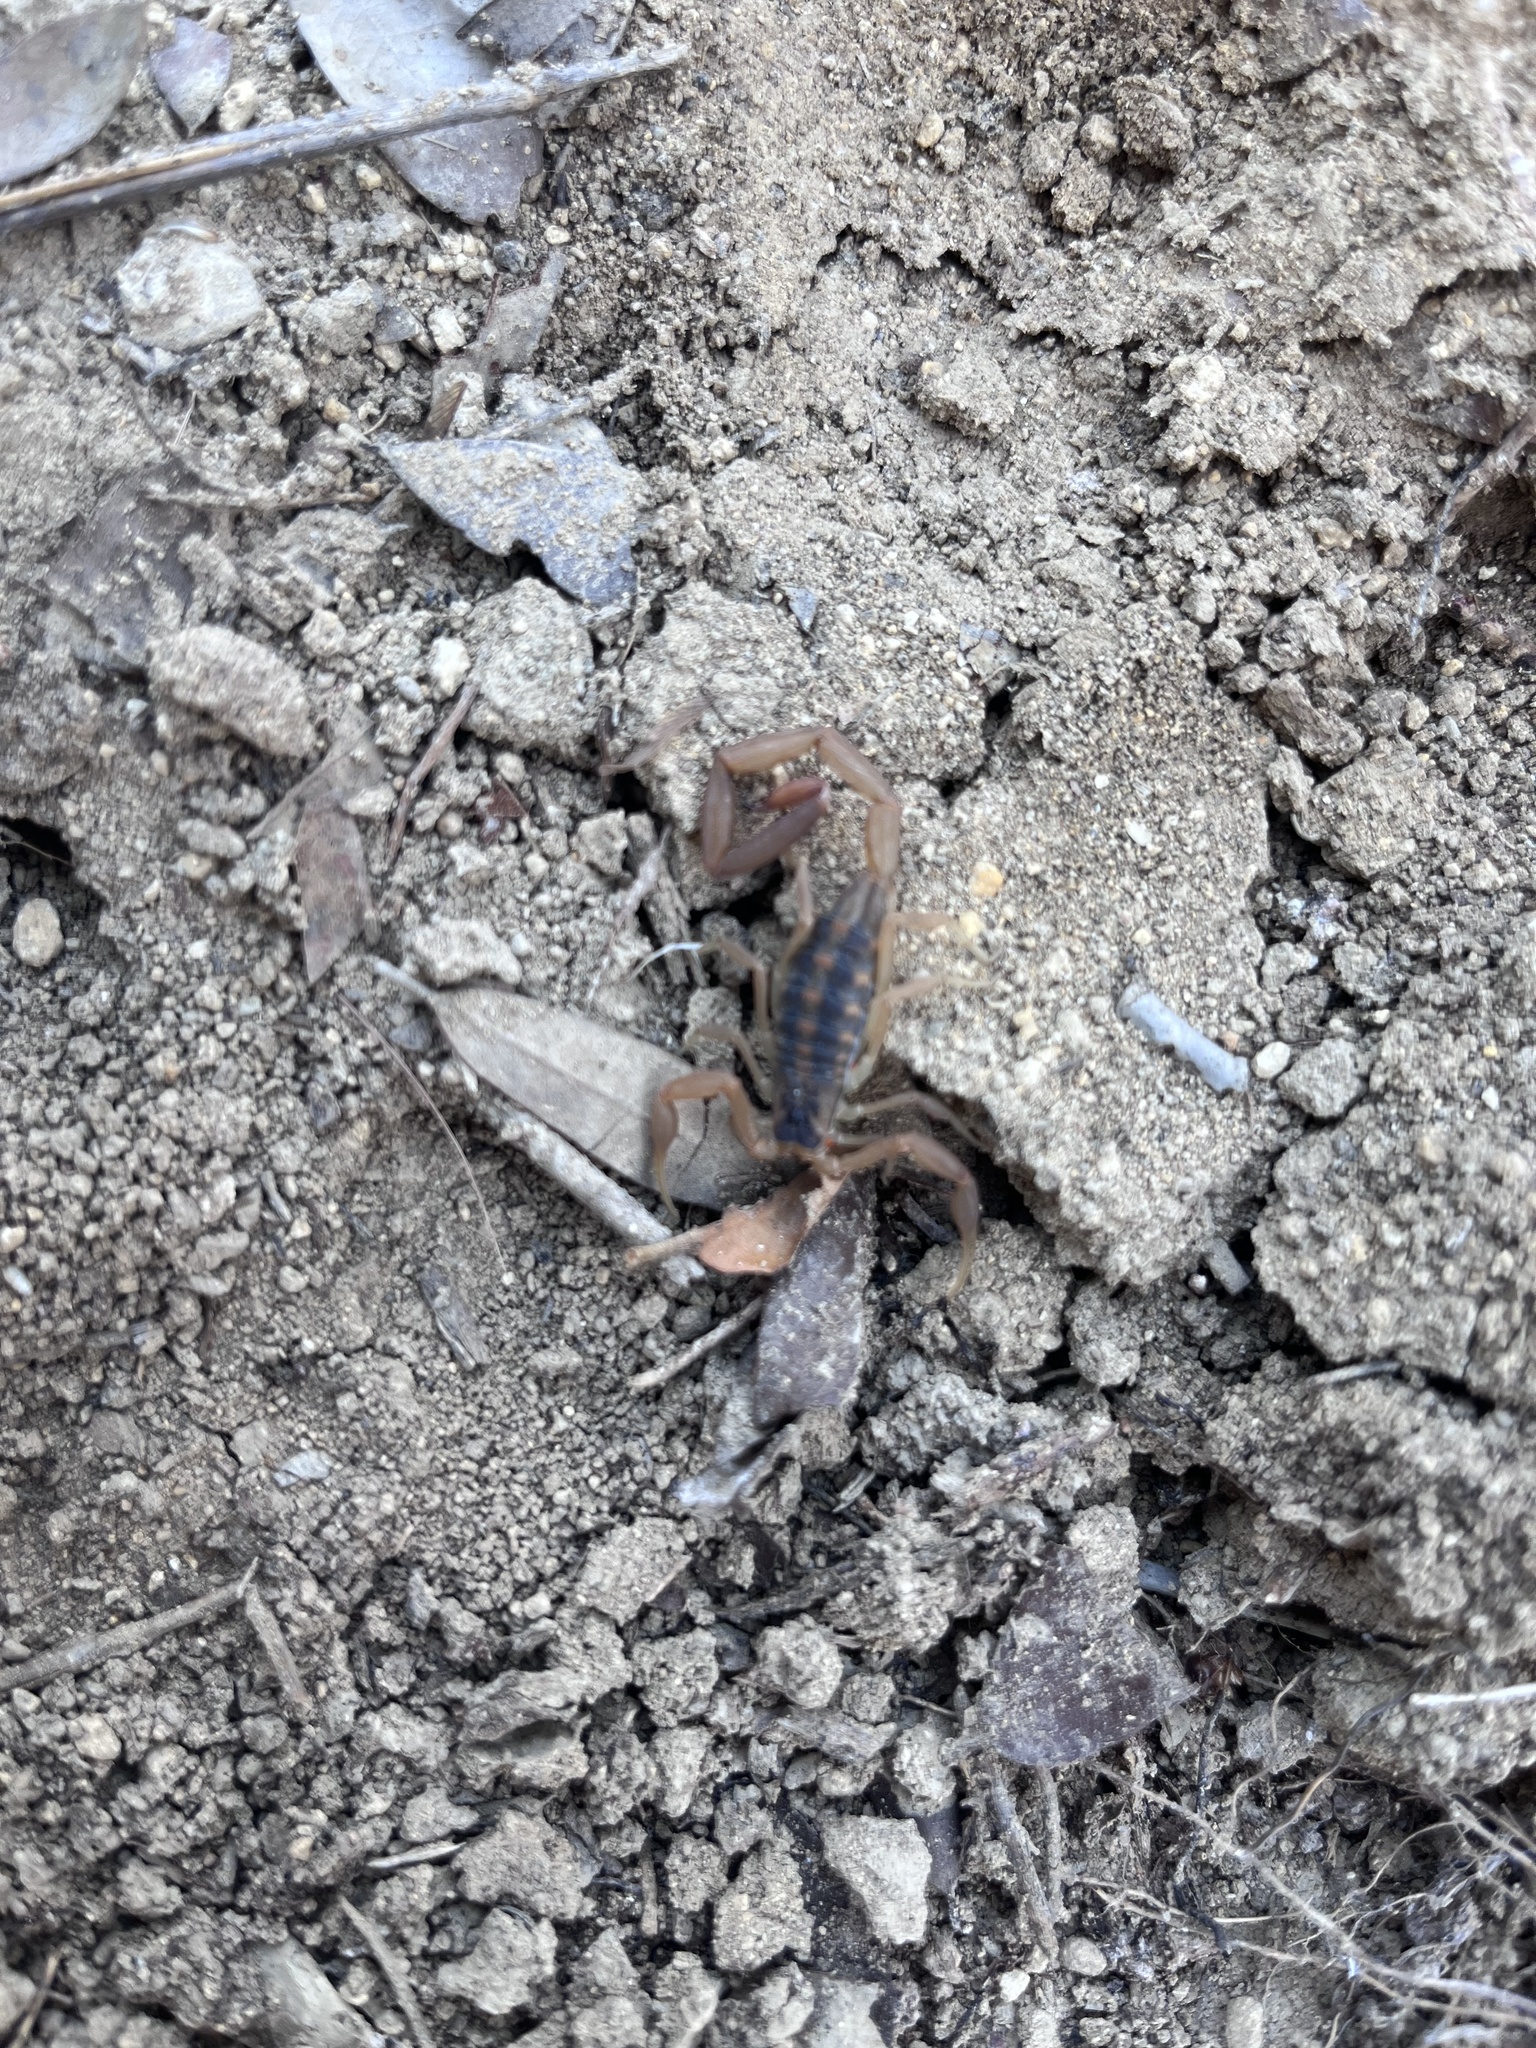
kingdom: Animalia
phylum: Arthropoda
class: Arachnida
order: Scorpiones
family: Buthidae
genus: Centruroides
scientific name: Centruroides vittatus
